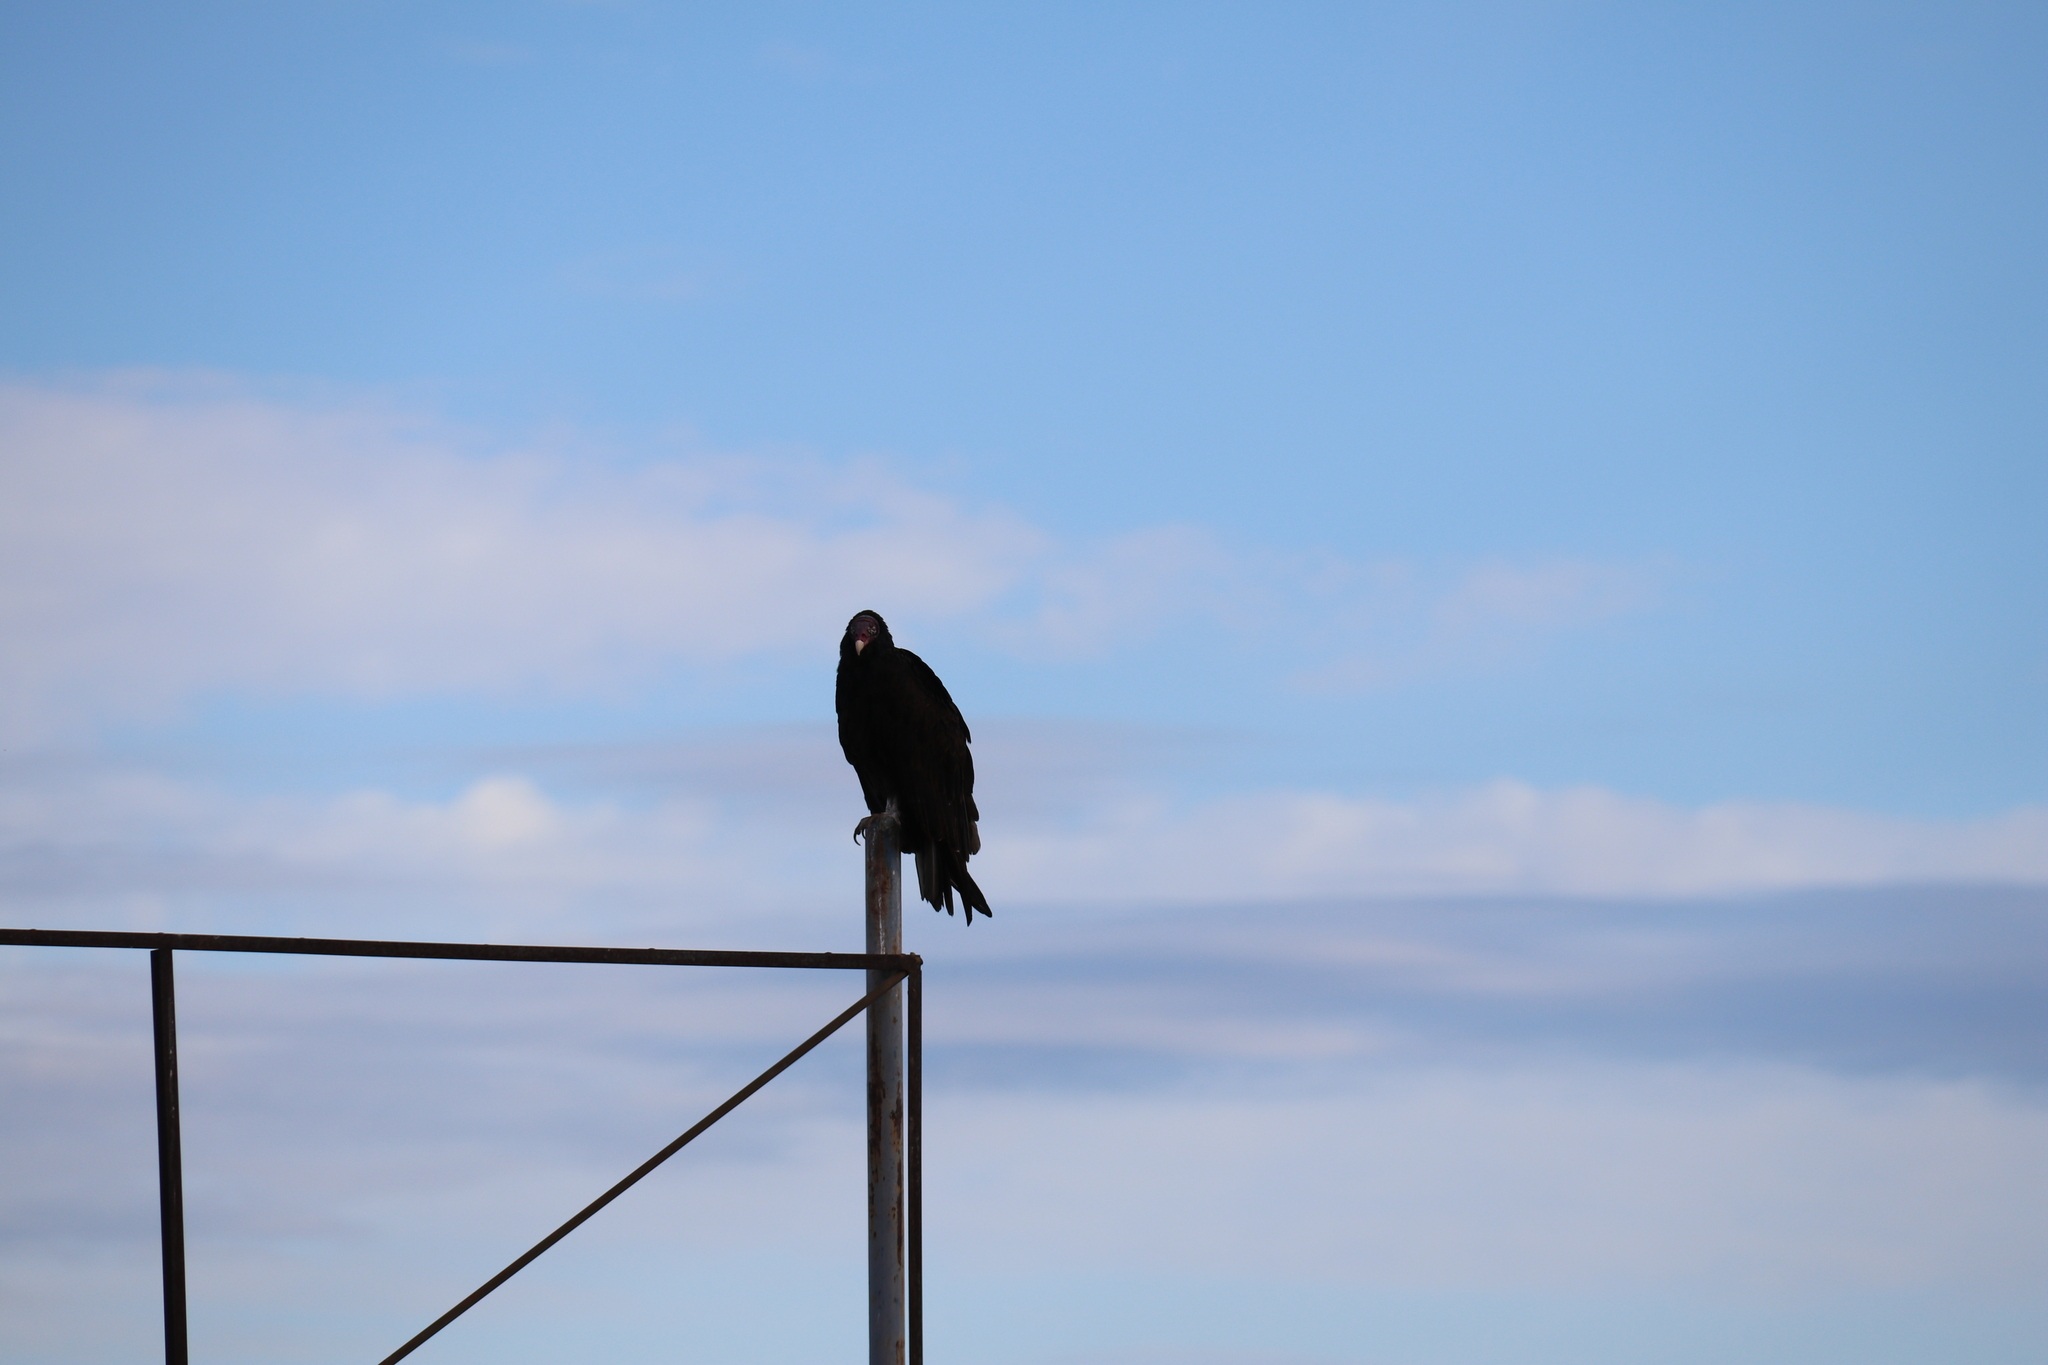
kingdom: Animalia
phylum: Chordata
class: Aves
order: Accipitriformes
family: Cathartidae
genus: Cathartes
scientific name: Cathartes aura
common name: Turkey vulture
